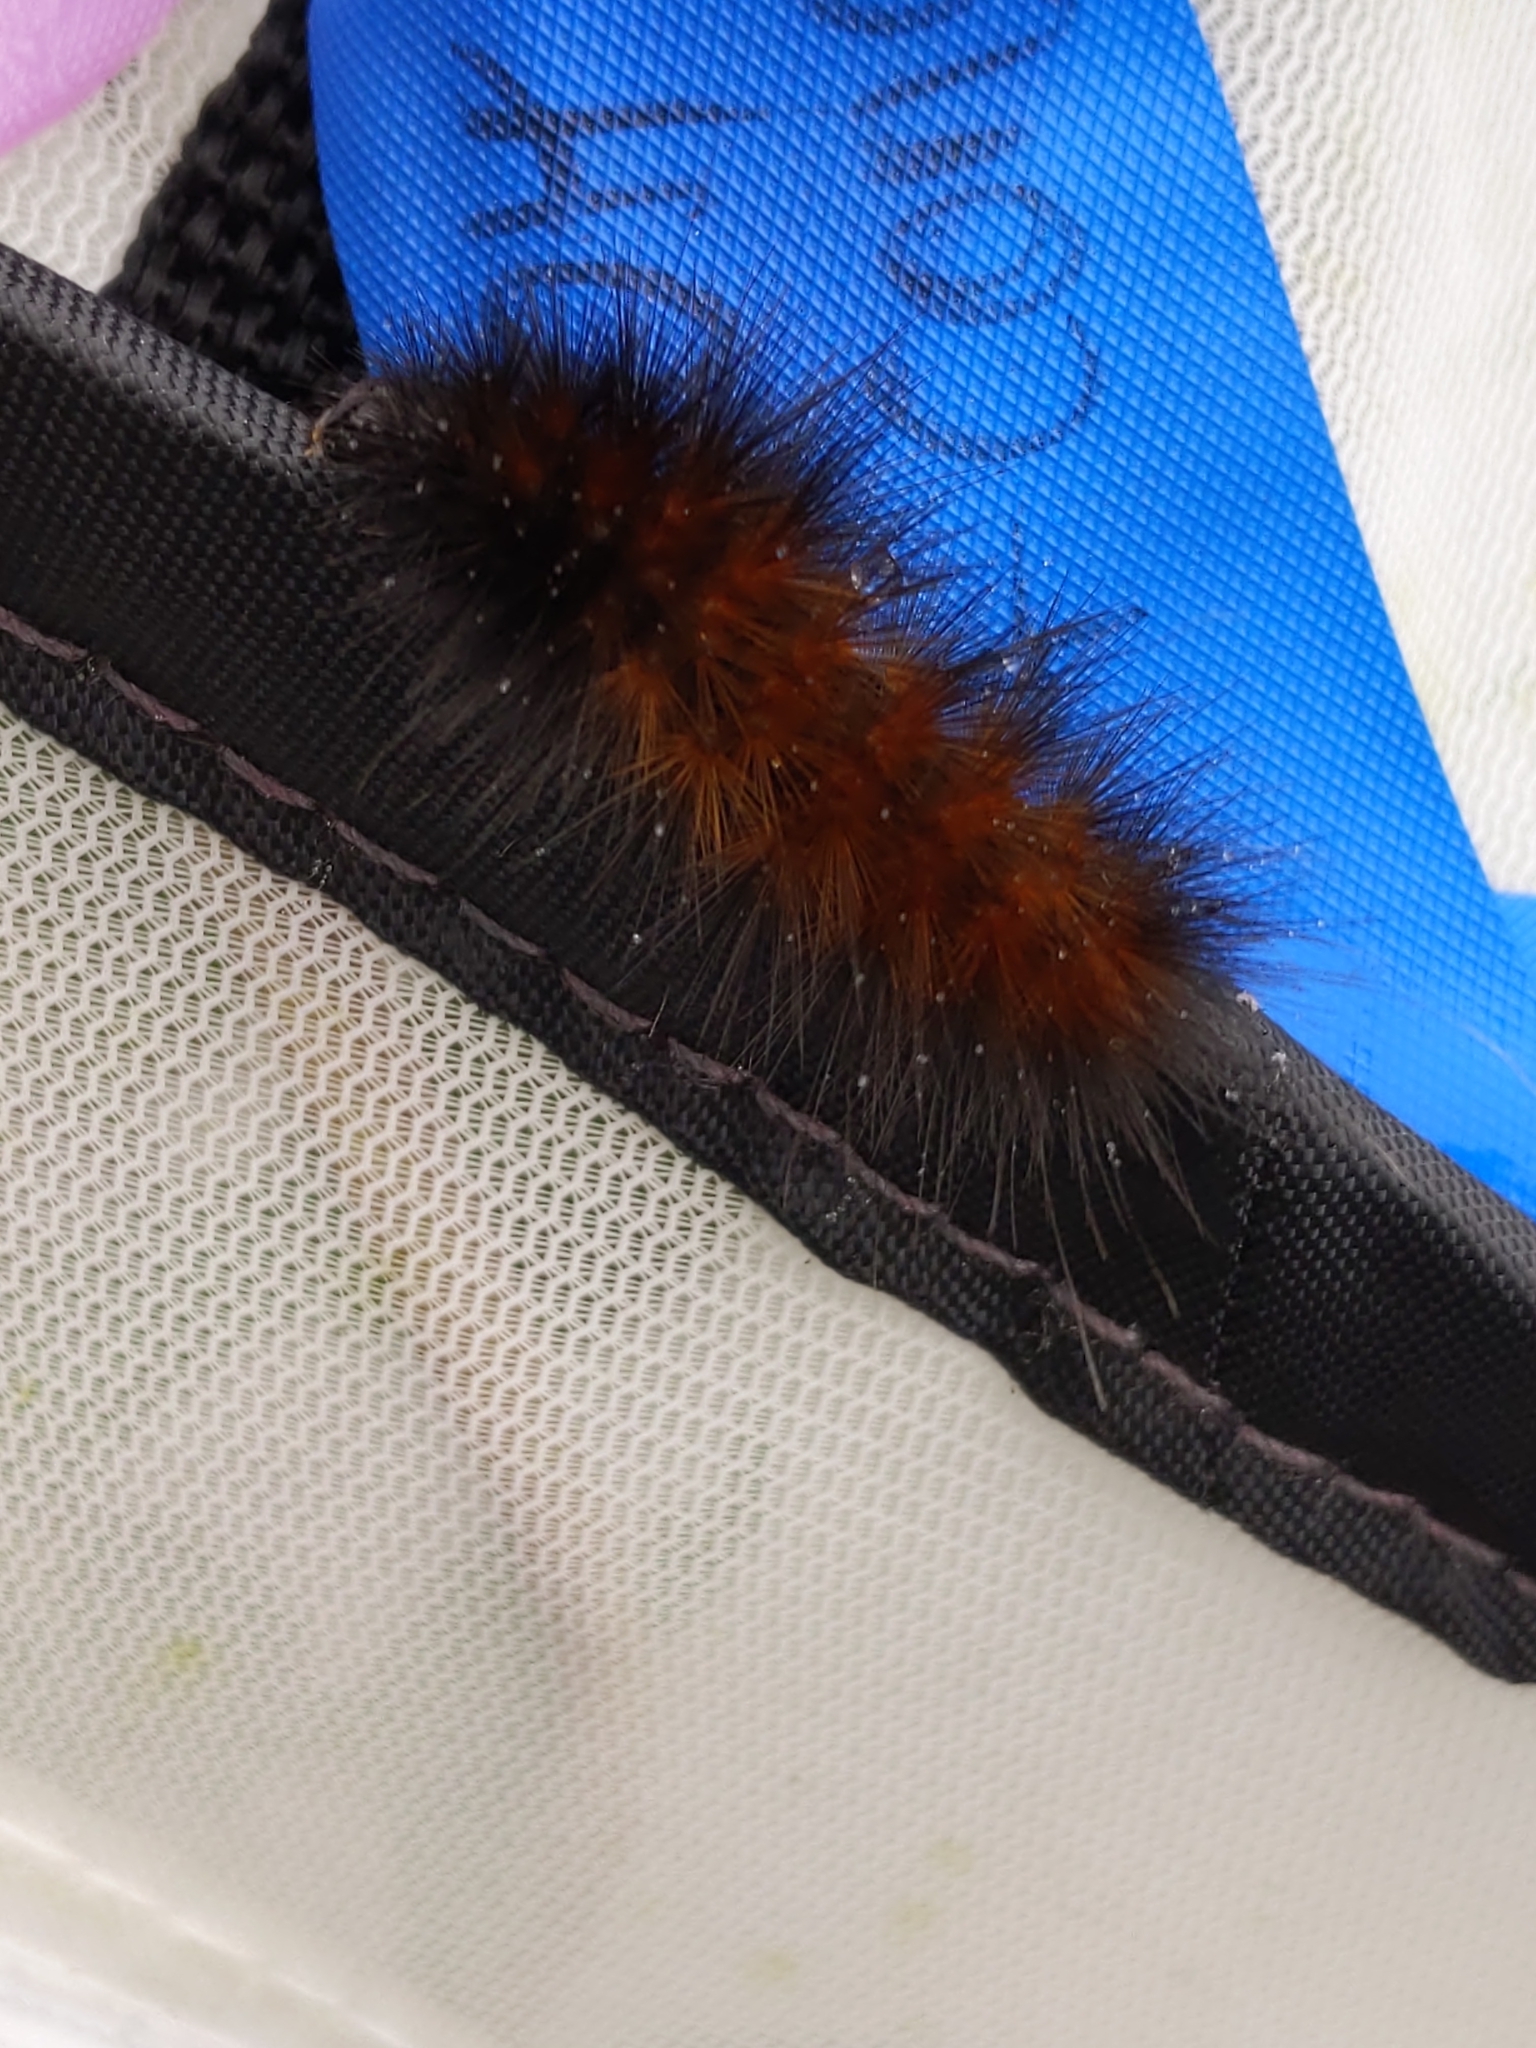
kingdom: Animalia
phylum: Arthropoda
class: Insecta
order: Lepidoptera
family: Erebidae
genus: Pyrrharctia
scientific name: Pyrrharctia isabella
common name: Isabella tiger moth
